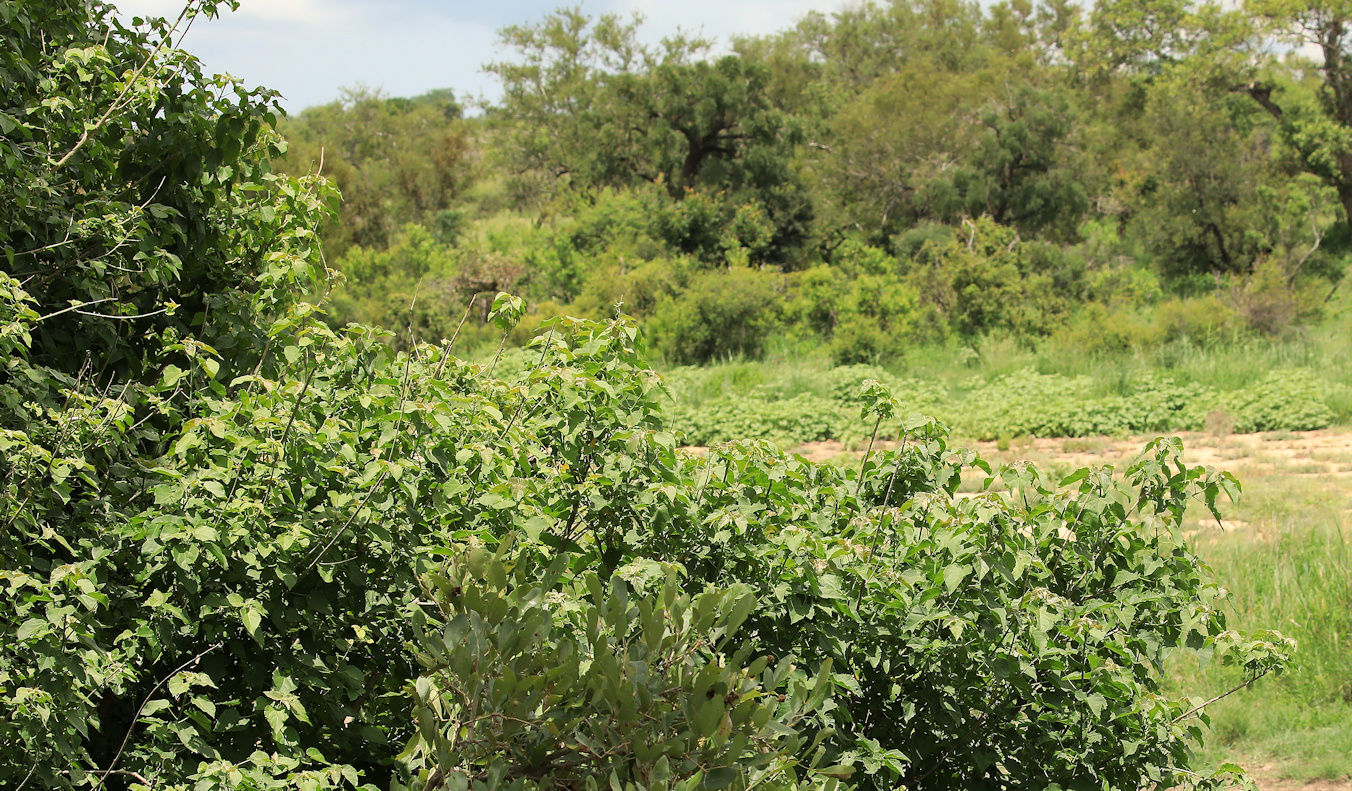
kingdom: Plantae
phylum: Tracheophyta
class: Magnoliopsida
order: Asterales
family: Asteraceae
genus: Xanthium
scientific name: Xanthium strumarium
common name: Rough cocklebur
